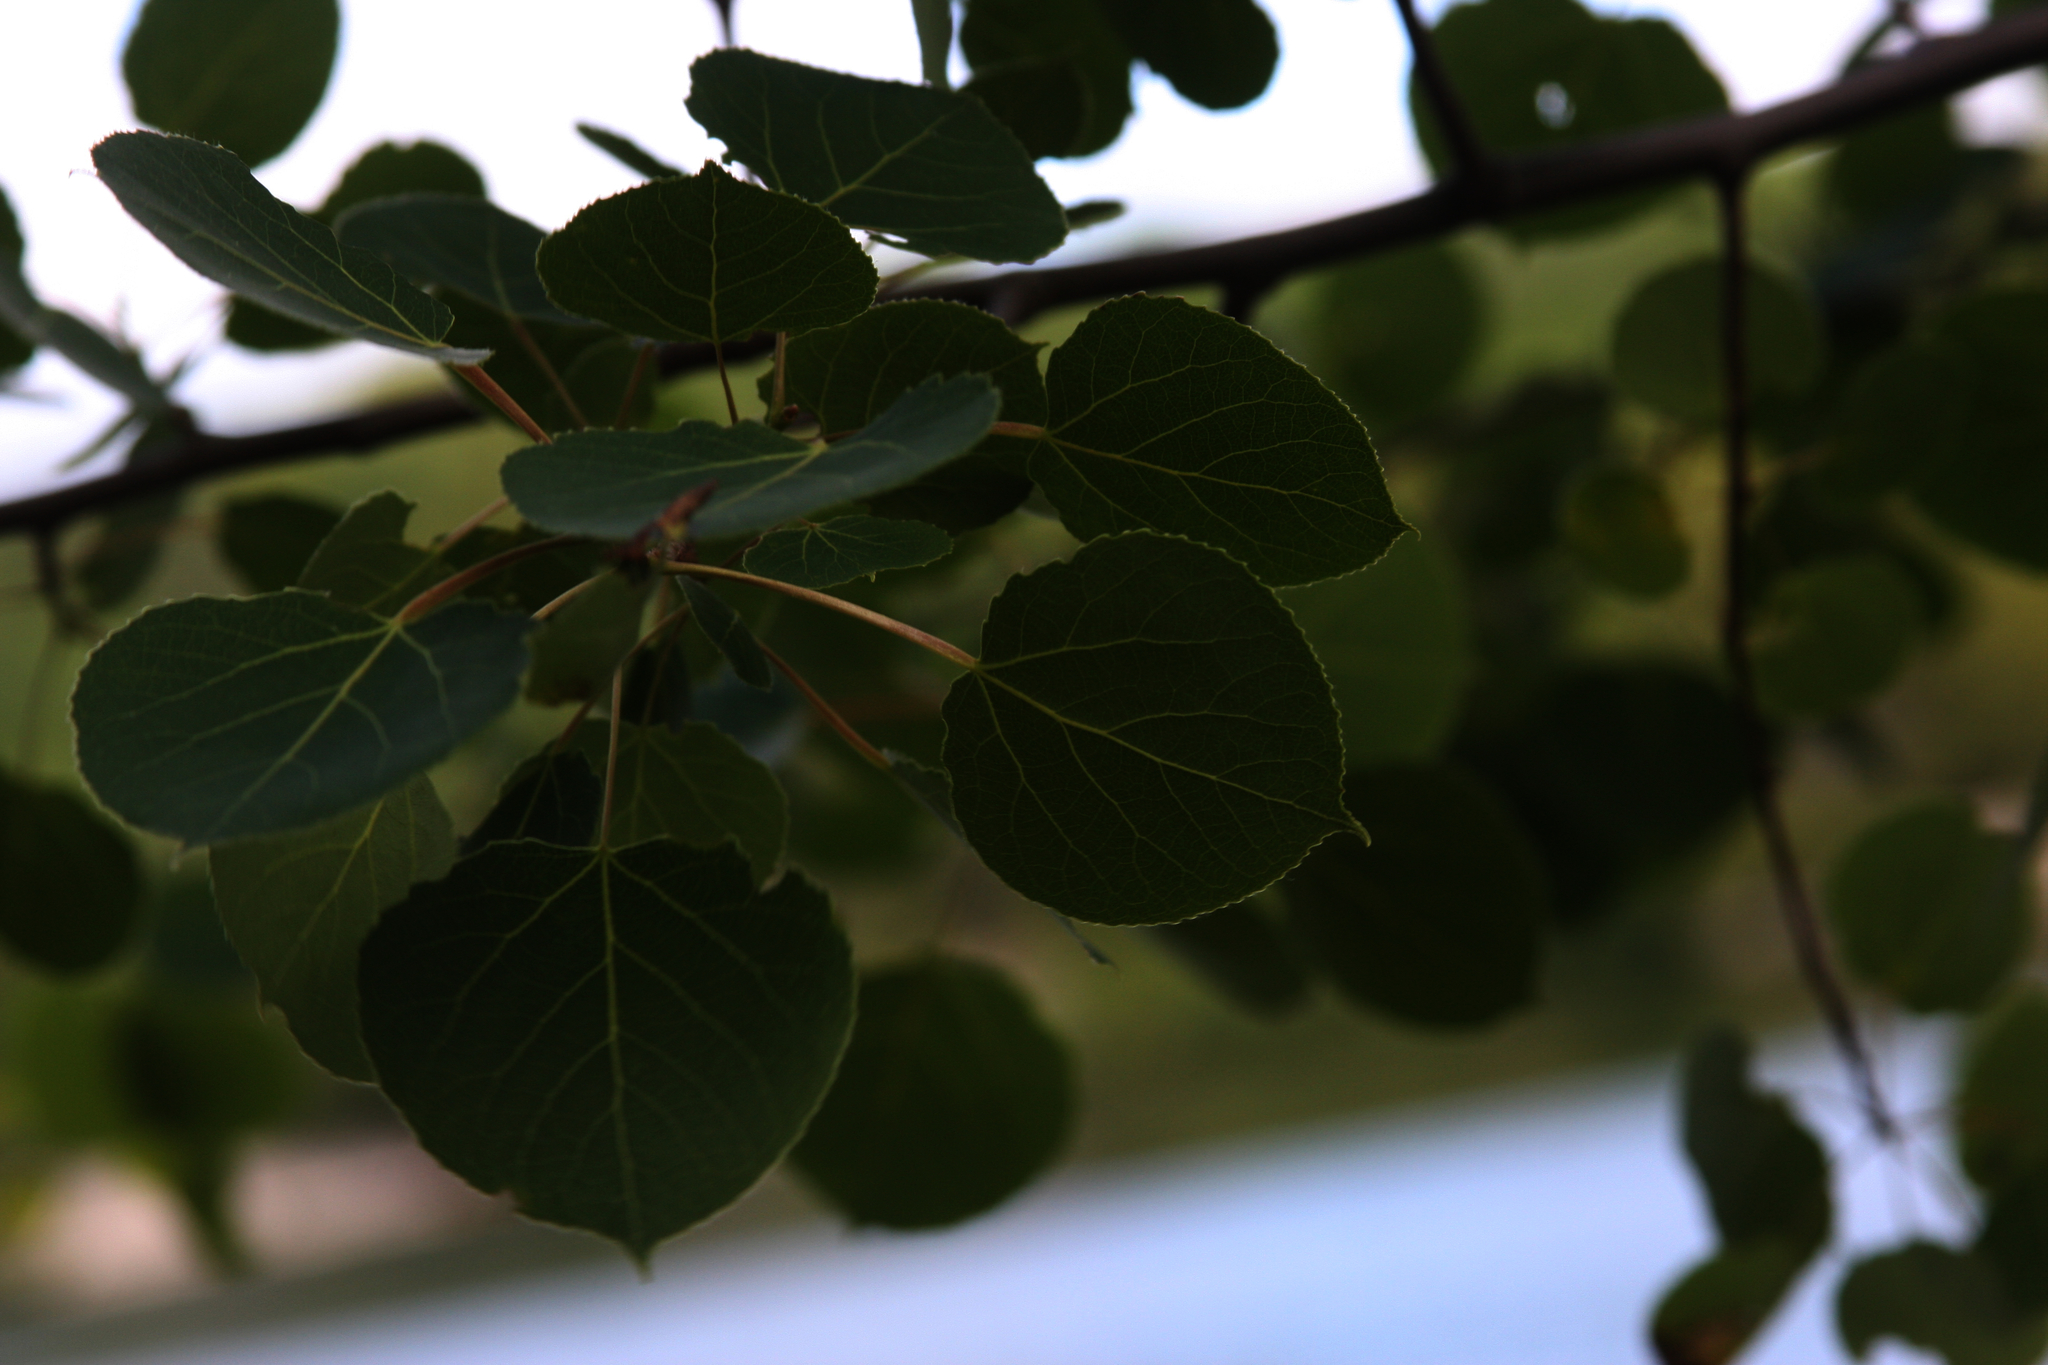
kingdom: Plantae
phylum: Tracheophyta
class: Magnoliopsida
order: Malpighiales
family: Salicaceae
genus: Populus
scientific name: Populus tremuloides
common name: Quaking aspen
